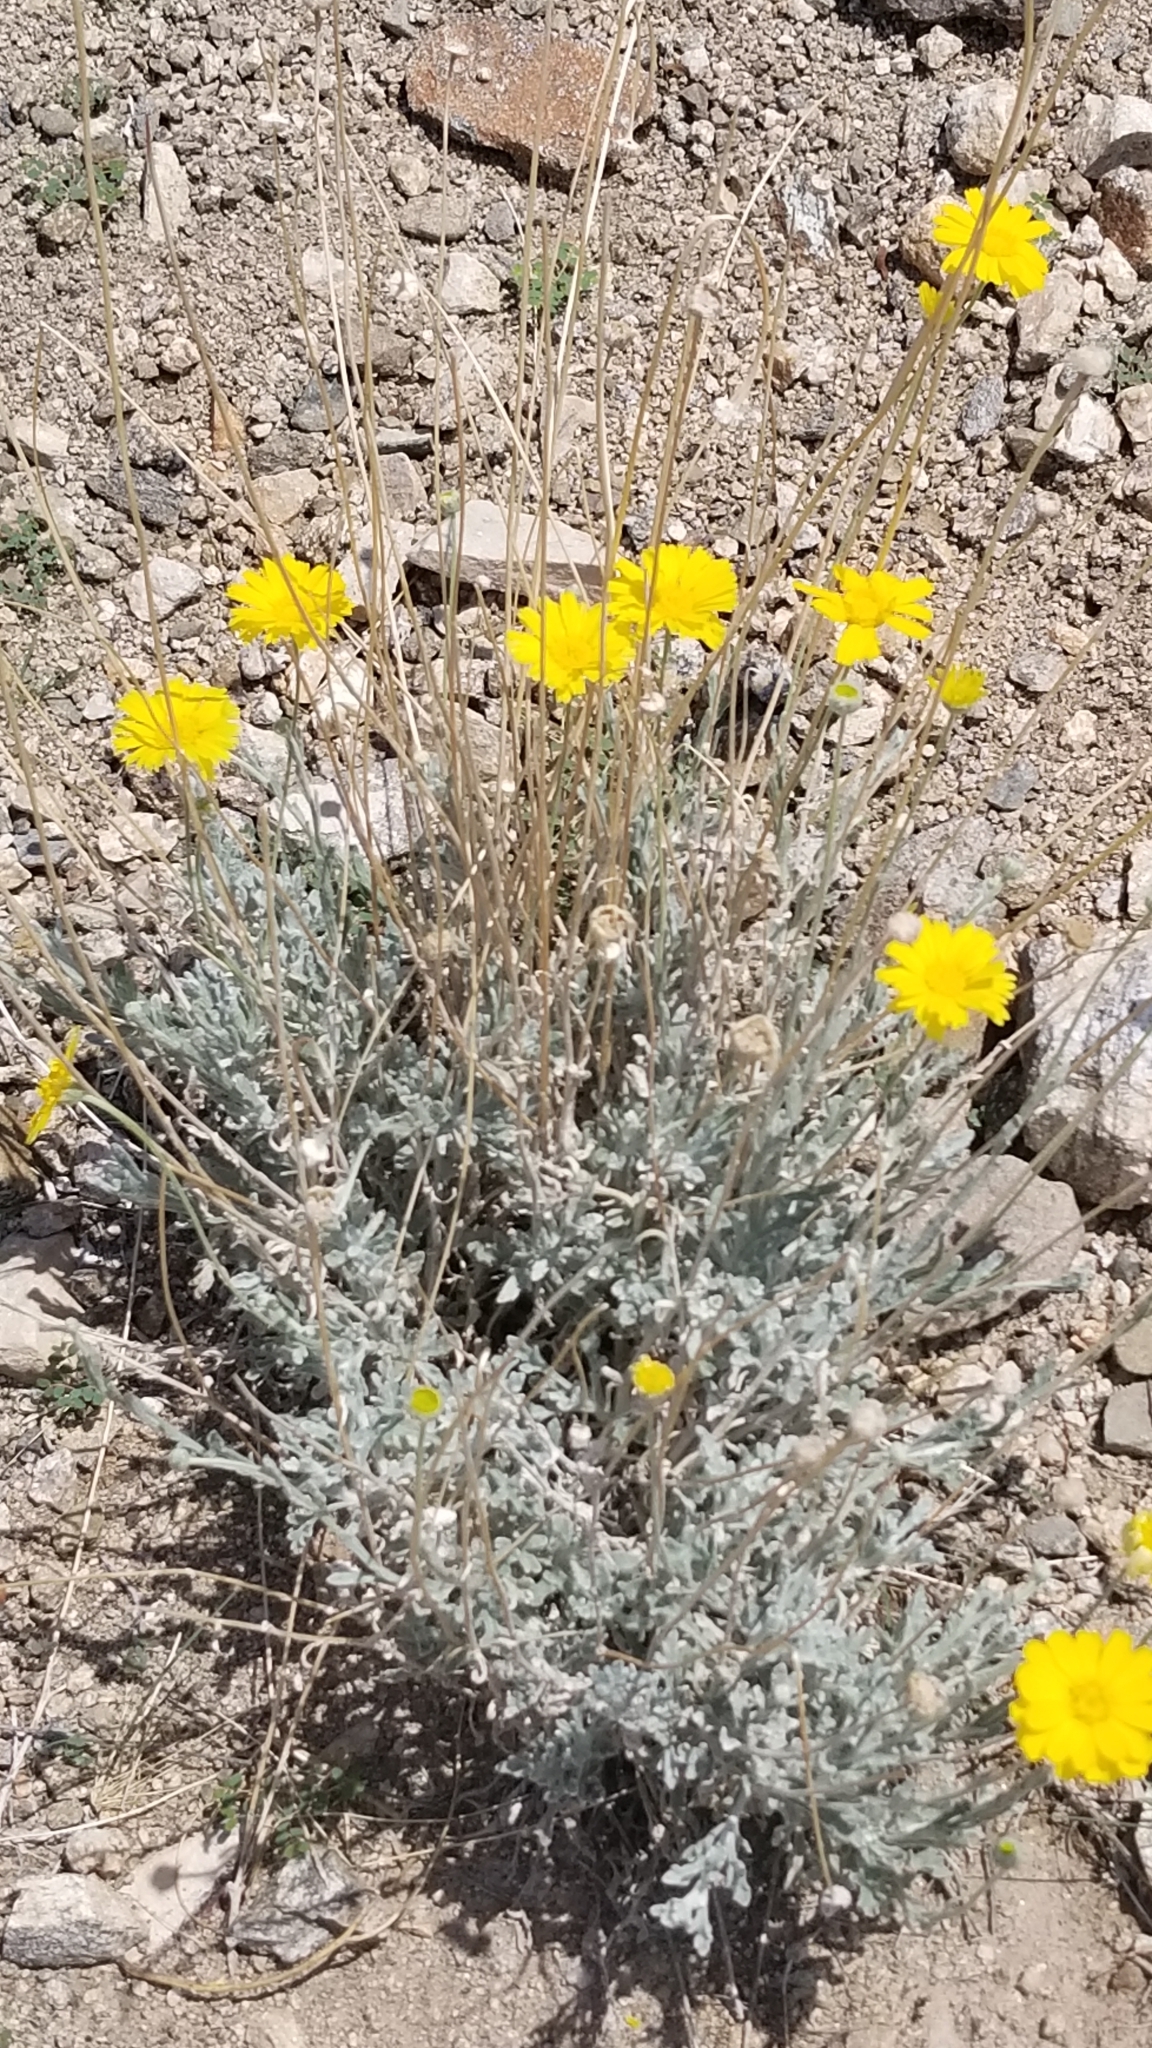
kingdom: Plantae
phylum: Tracheophyta
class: Magnoliopsida
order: Asterales
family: Asteraceae
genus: Baileya
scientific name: Baileya multiradiata
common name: Desert-marigold
